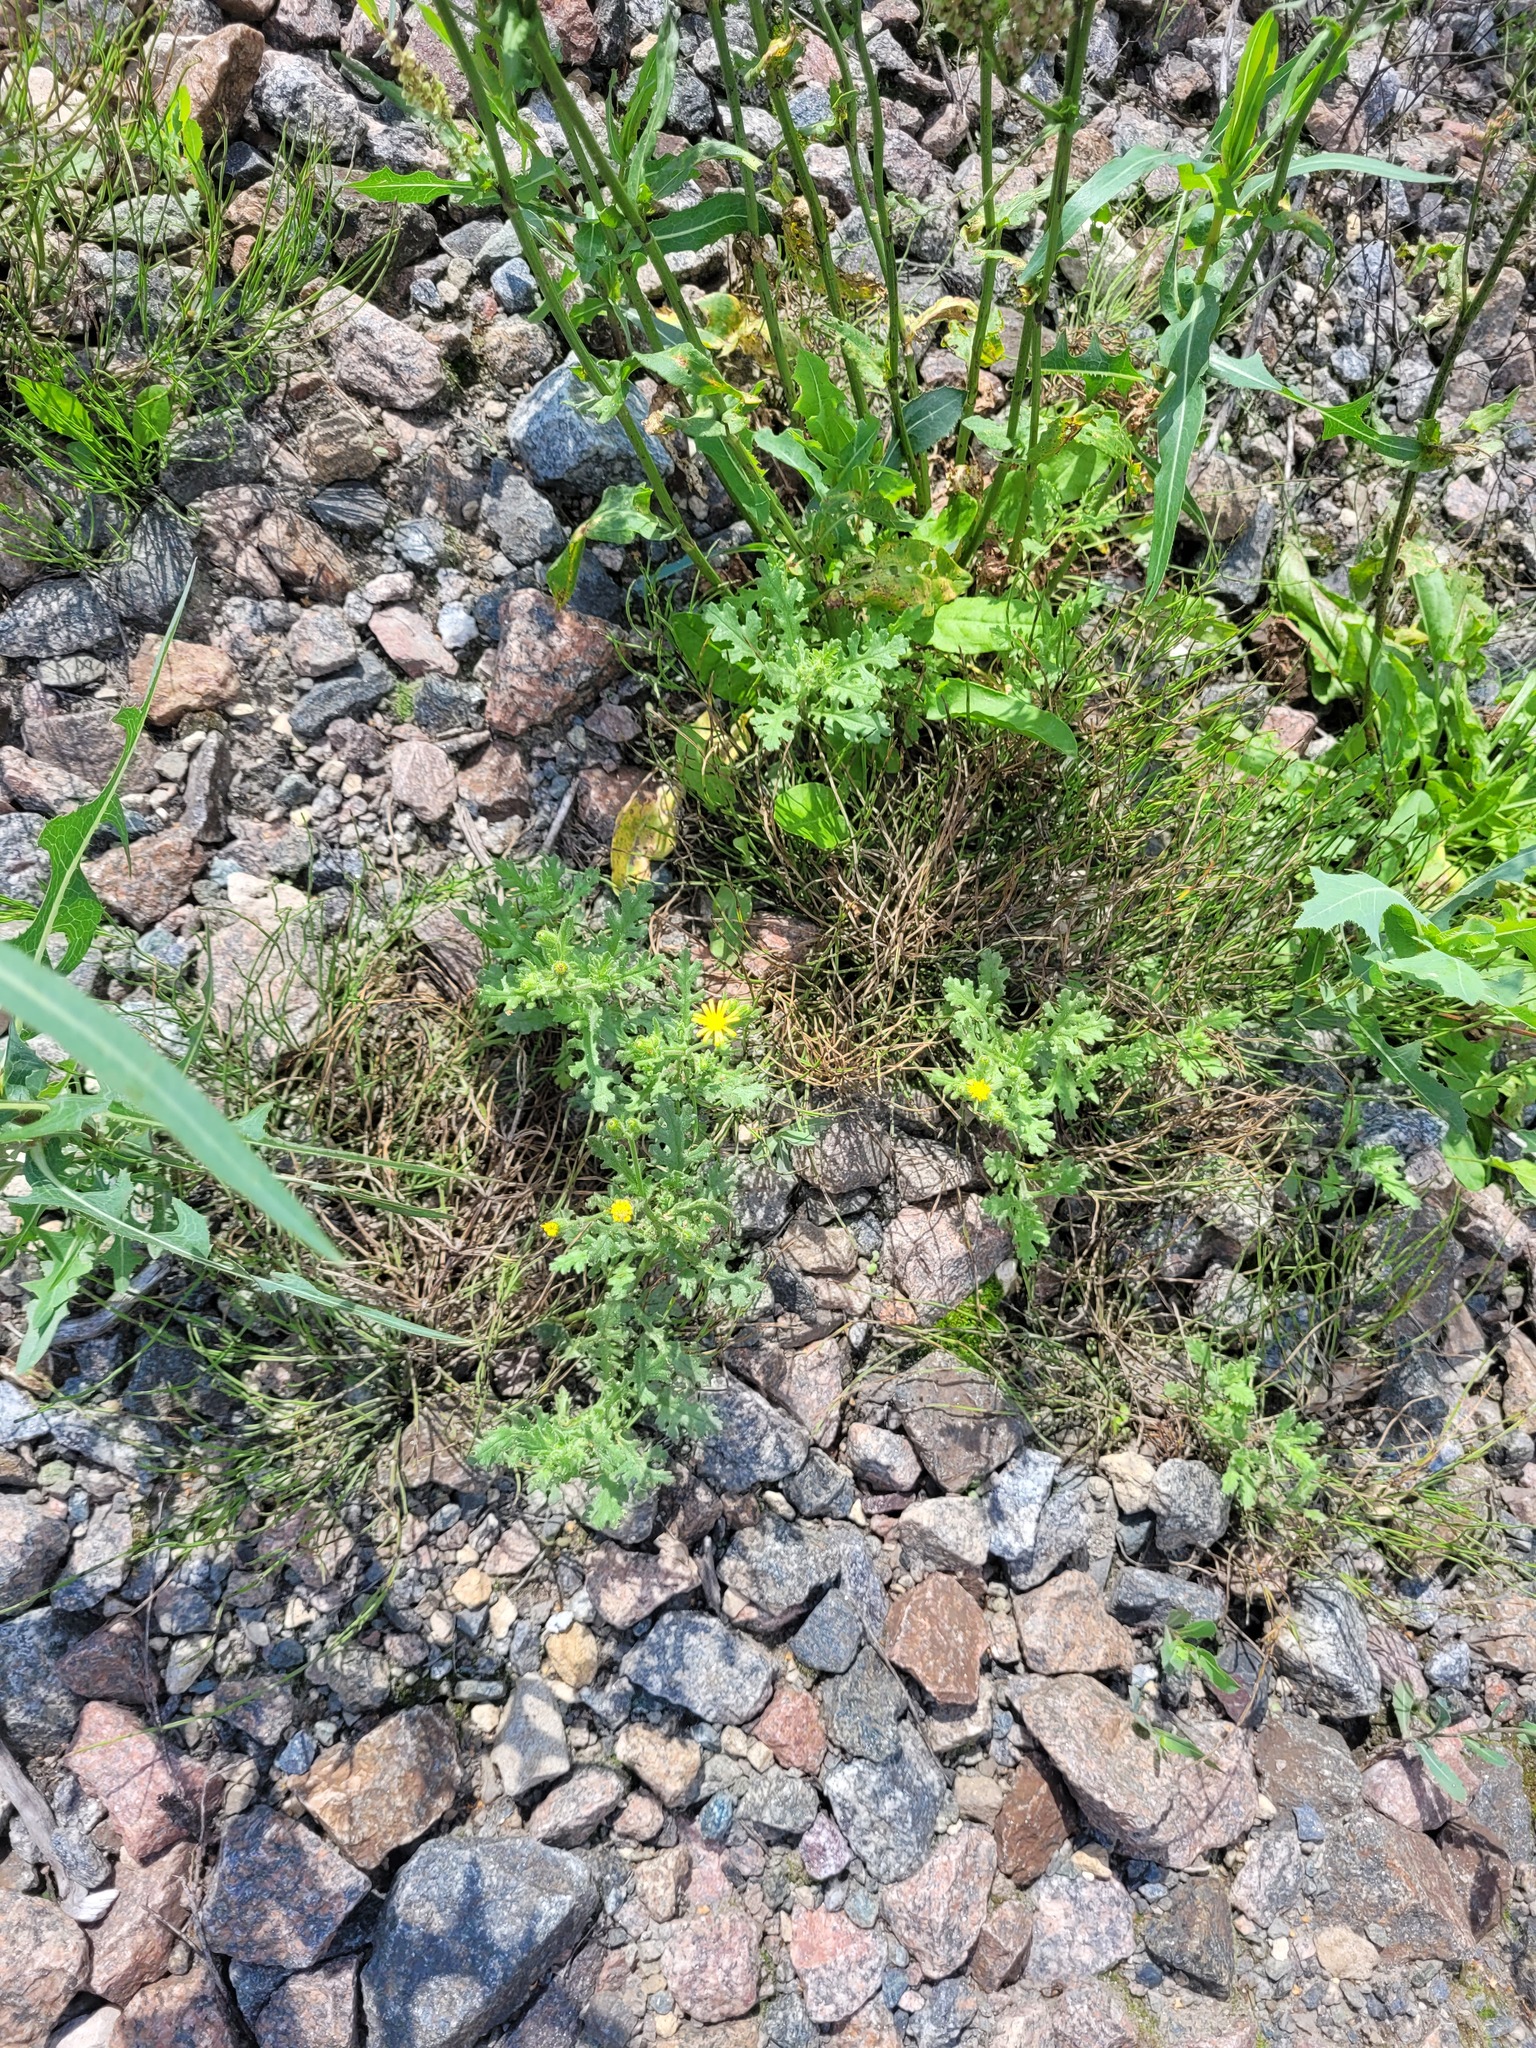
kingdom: Plantae
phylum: Tracheophyta
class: Magnoliopsida
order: Asterales
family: Asteraceae
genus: Senecio
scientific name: Senecio viscosus
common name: Sticky groundsel
